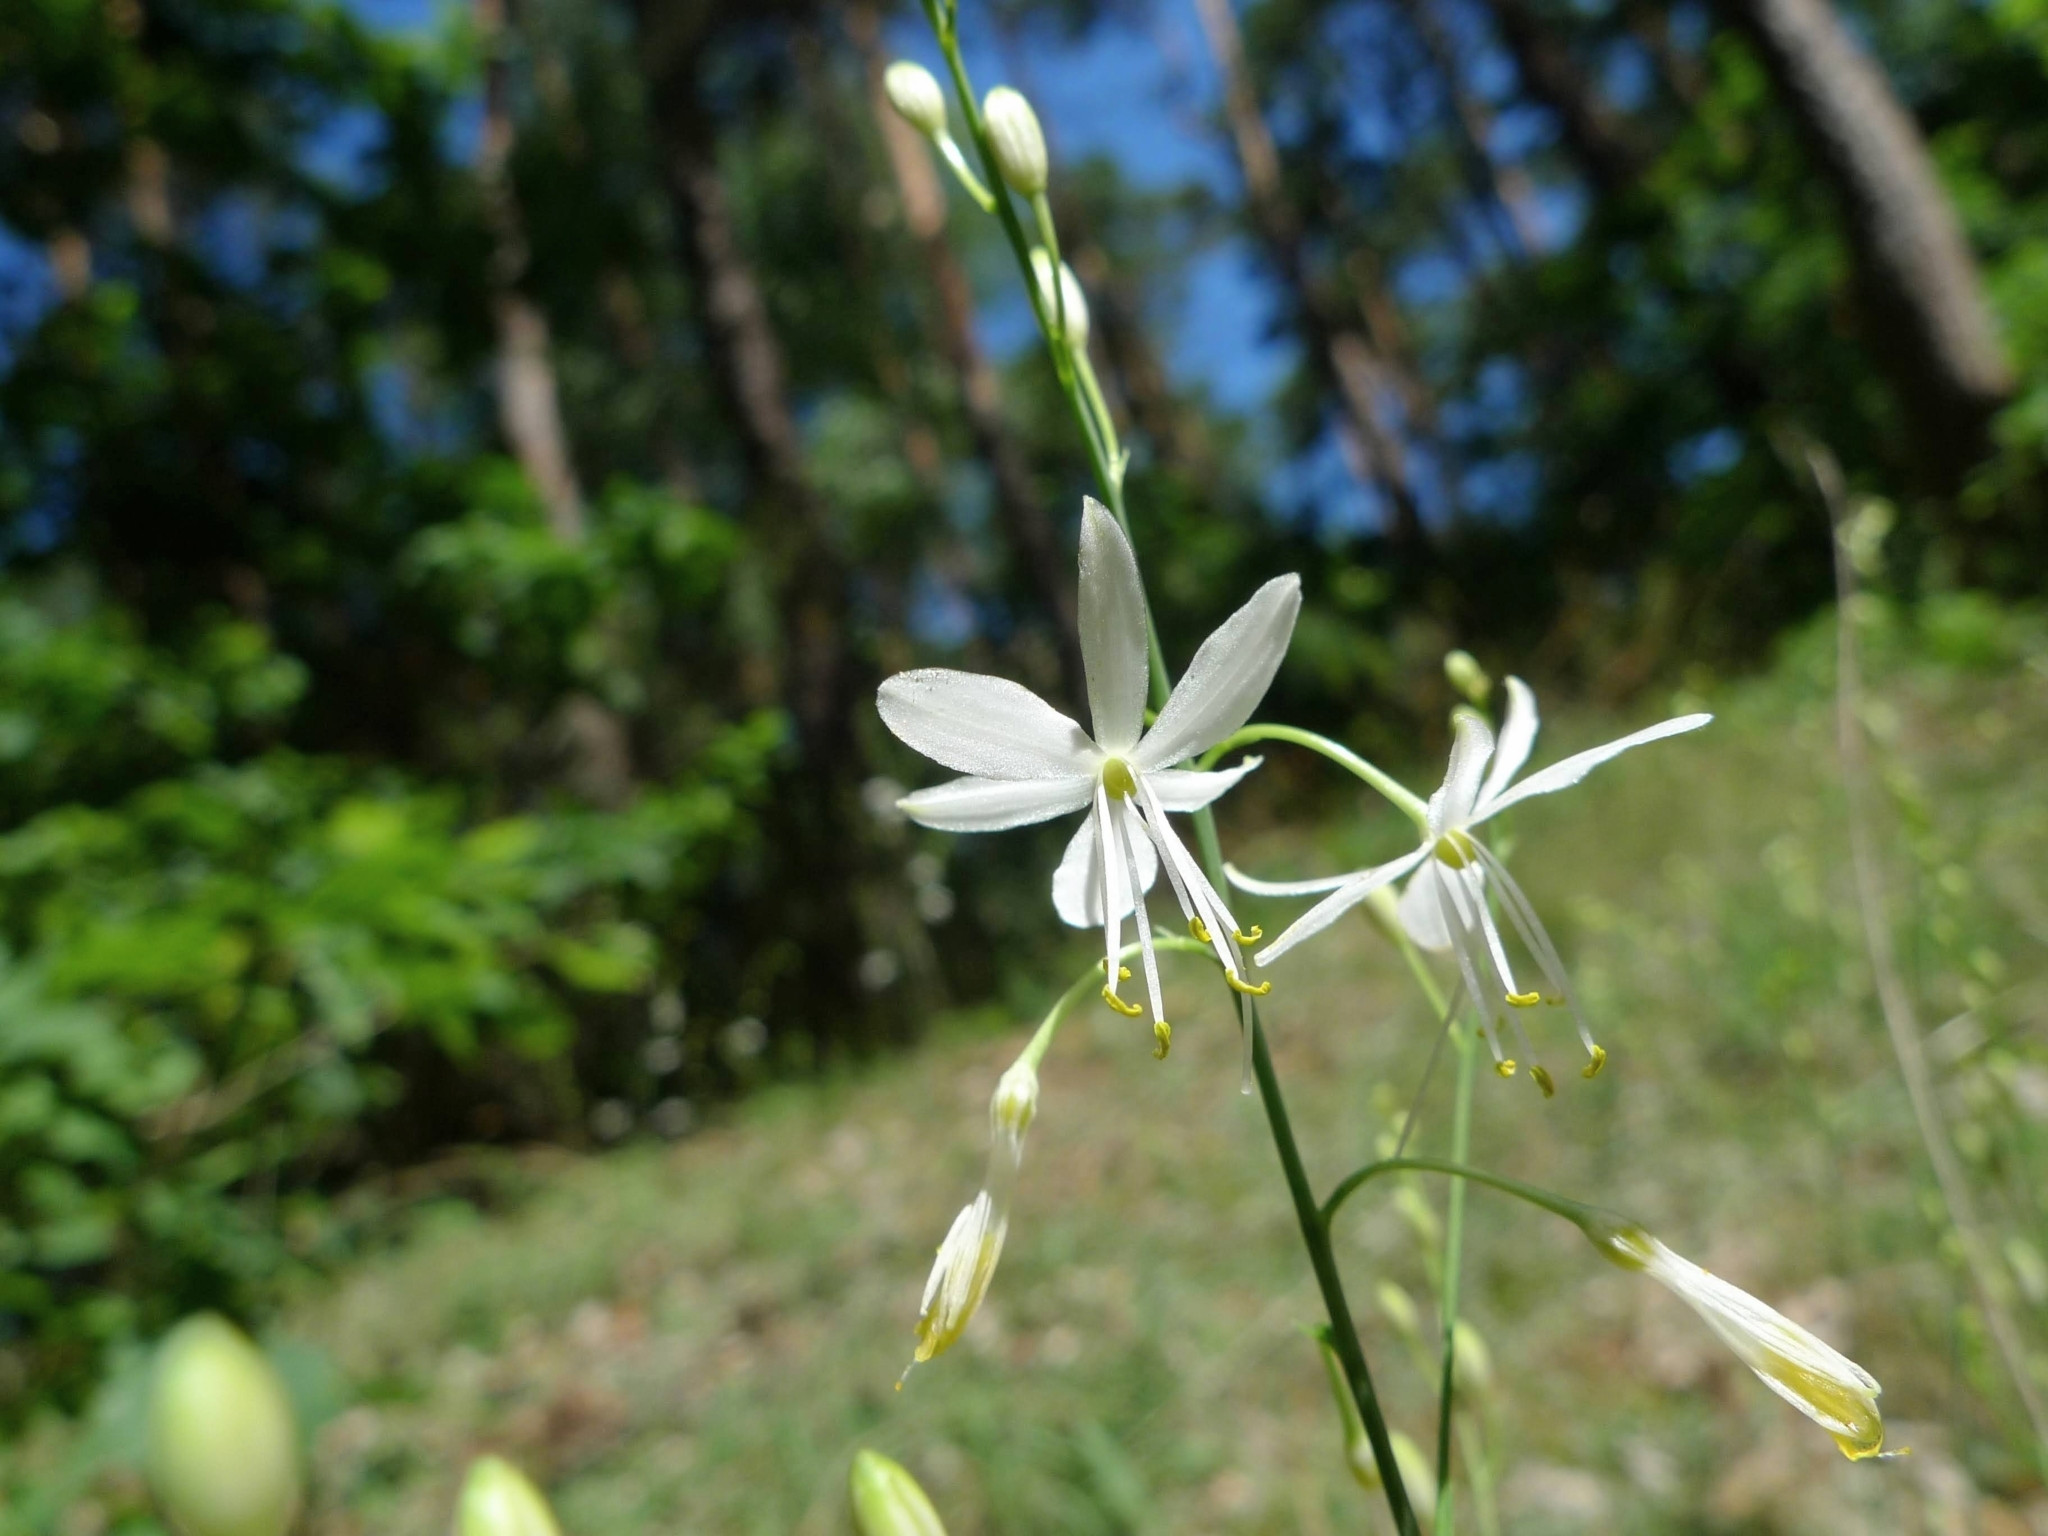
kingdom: Plantae
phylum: Tracheophyta
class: Liliopsida
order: Asparagales
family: Asparagaceae
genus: Anthericum
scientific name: Anthericum ramosum
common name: Branched st. bernard's-lily
